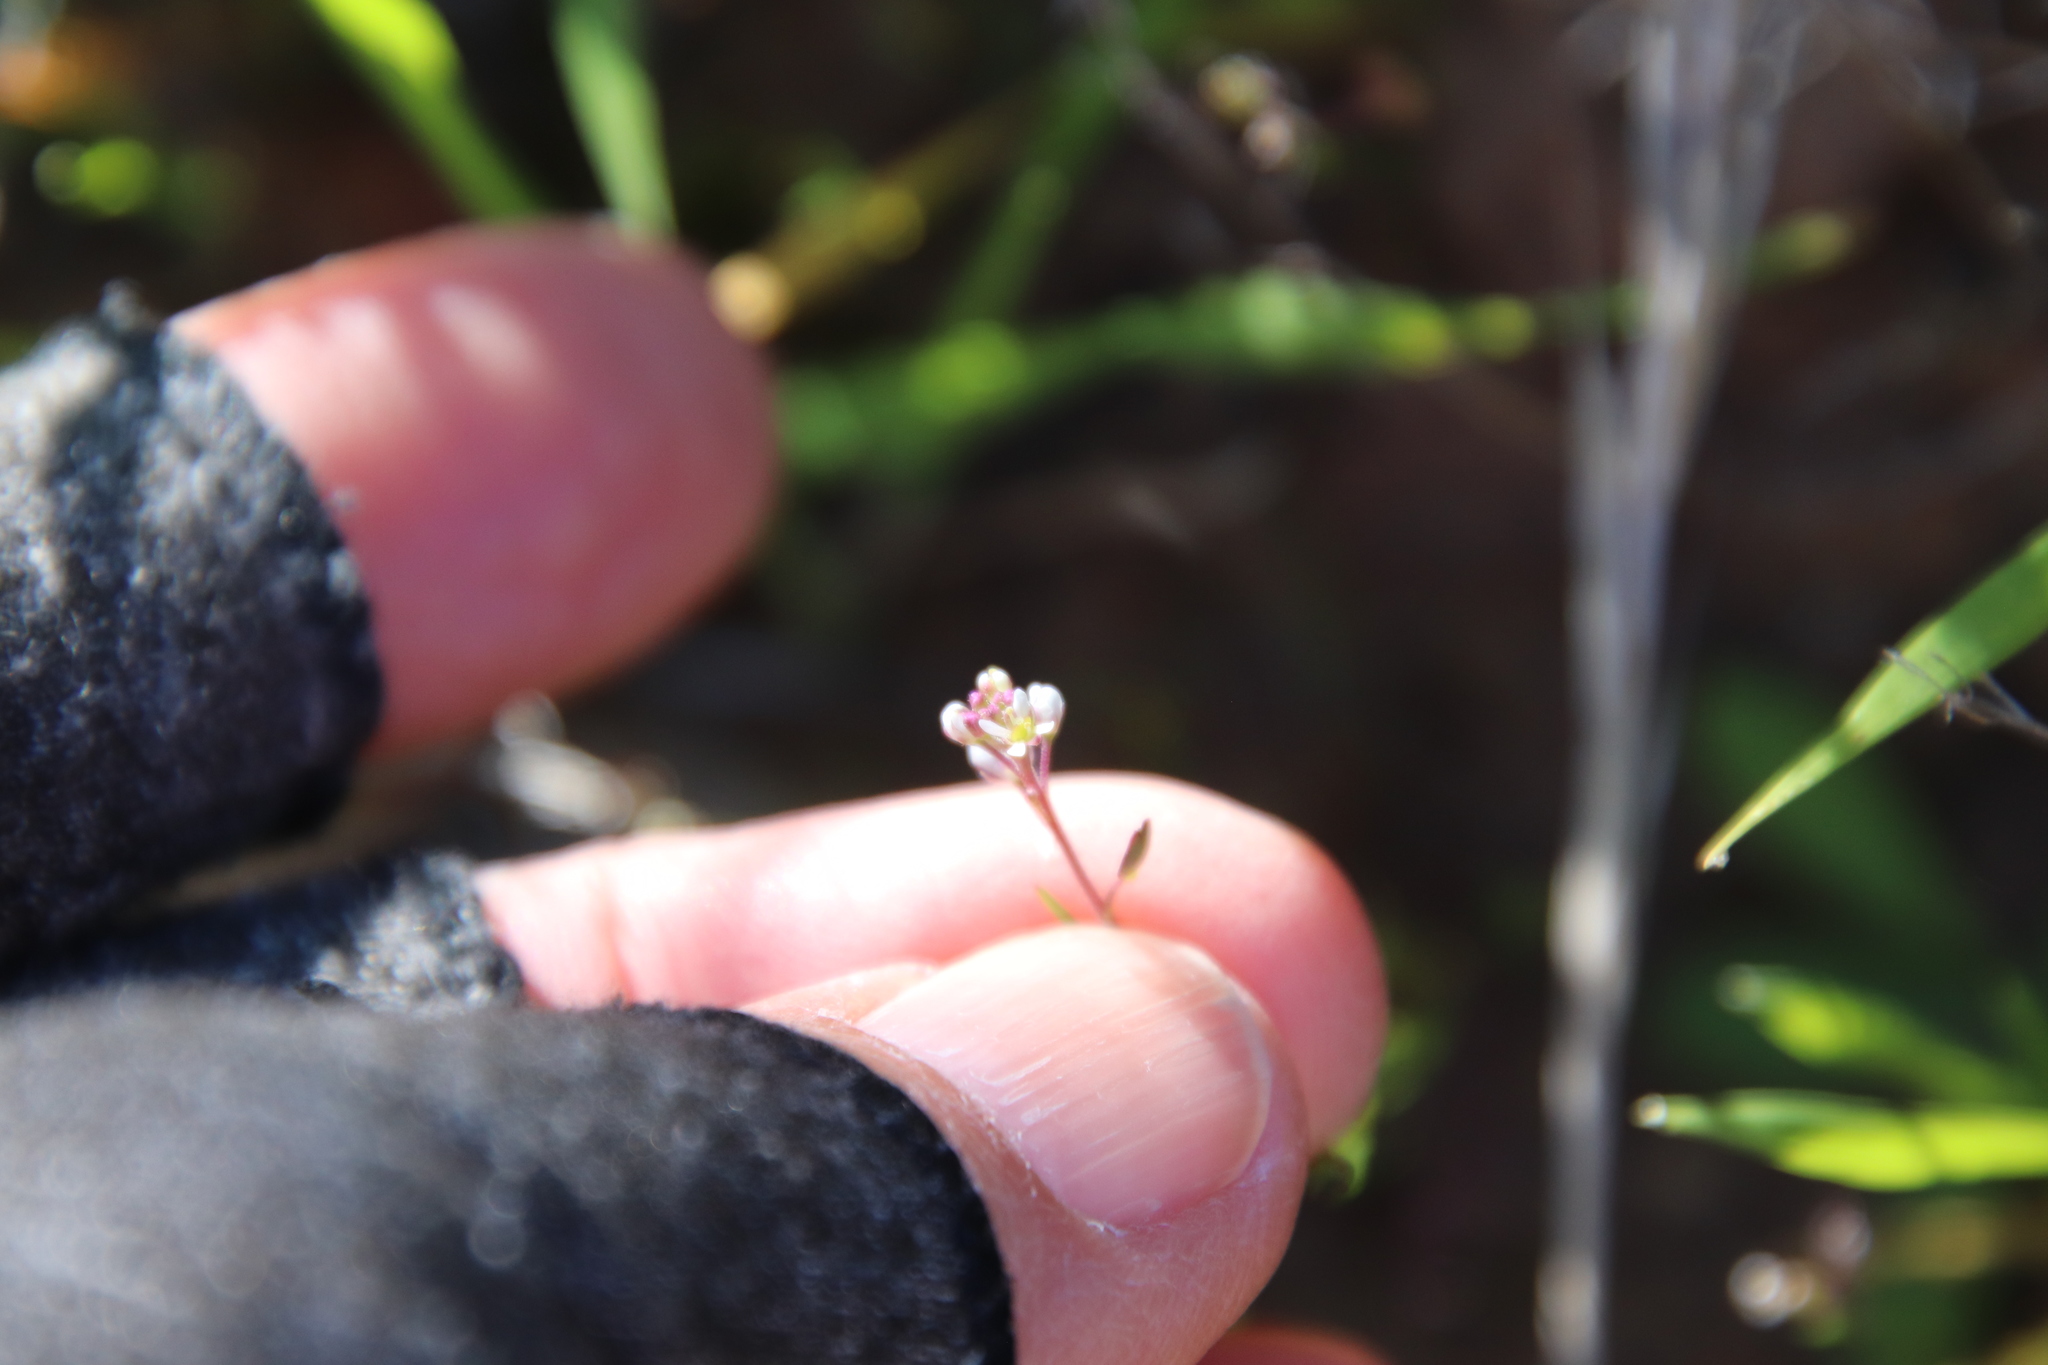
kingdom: Plantae
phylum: Tracheophyta
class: Magnoliopsida
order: Brassicales
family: Brassicaceae
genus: Lepidium
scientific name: Lepidium nitidum
